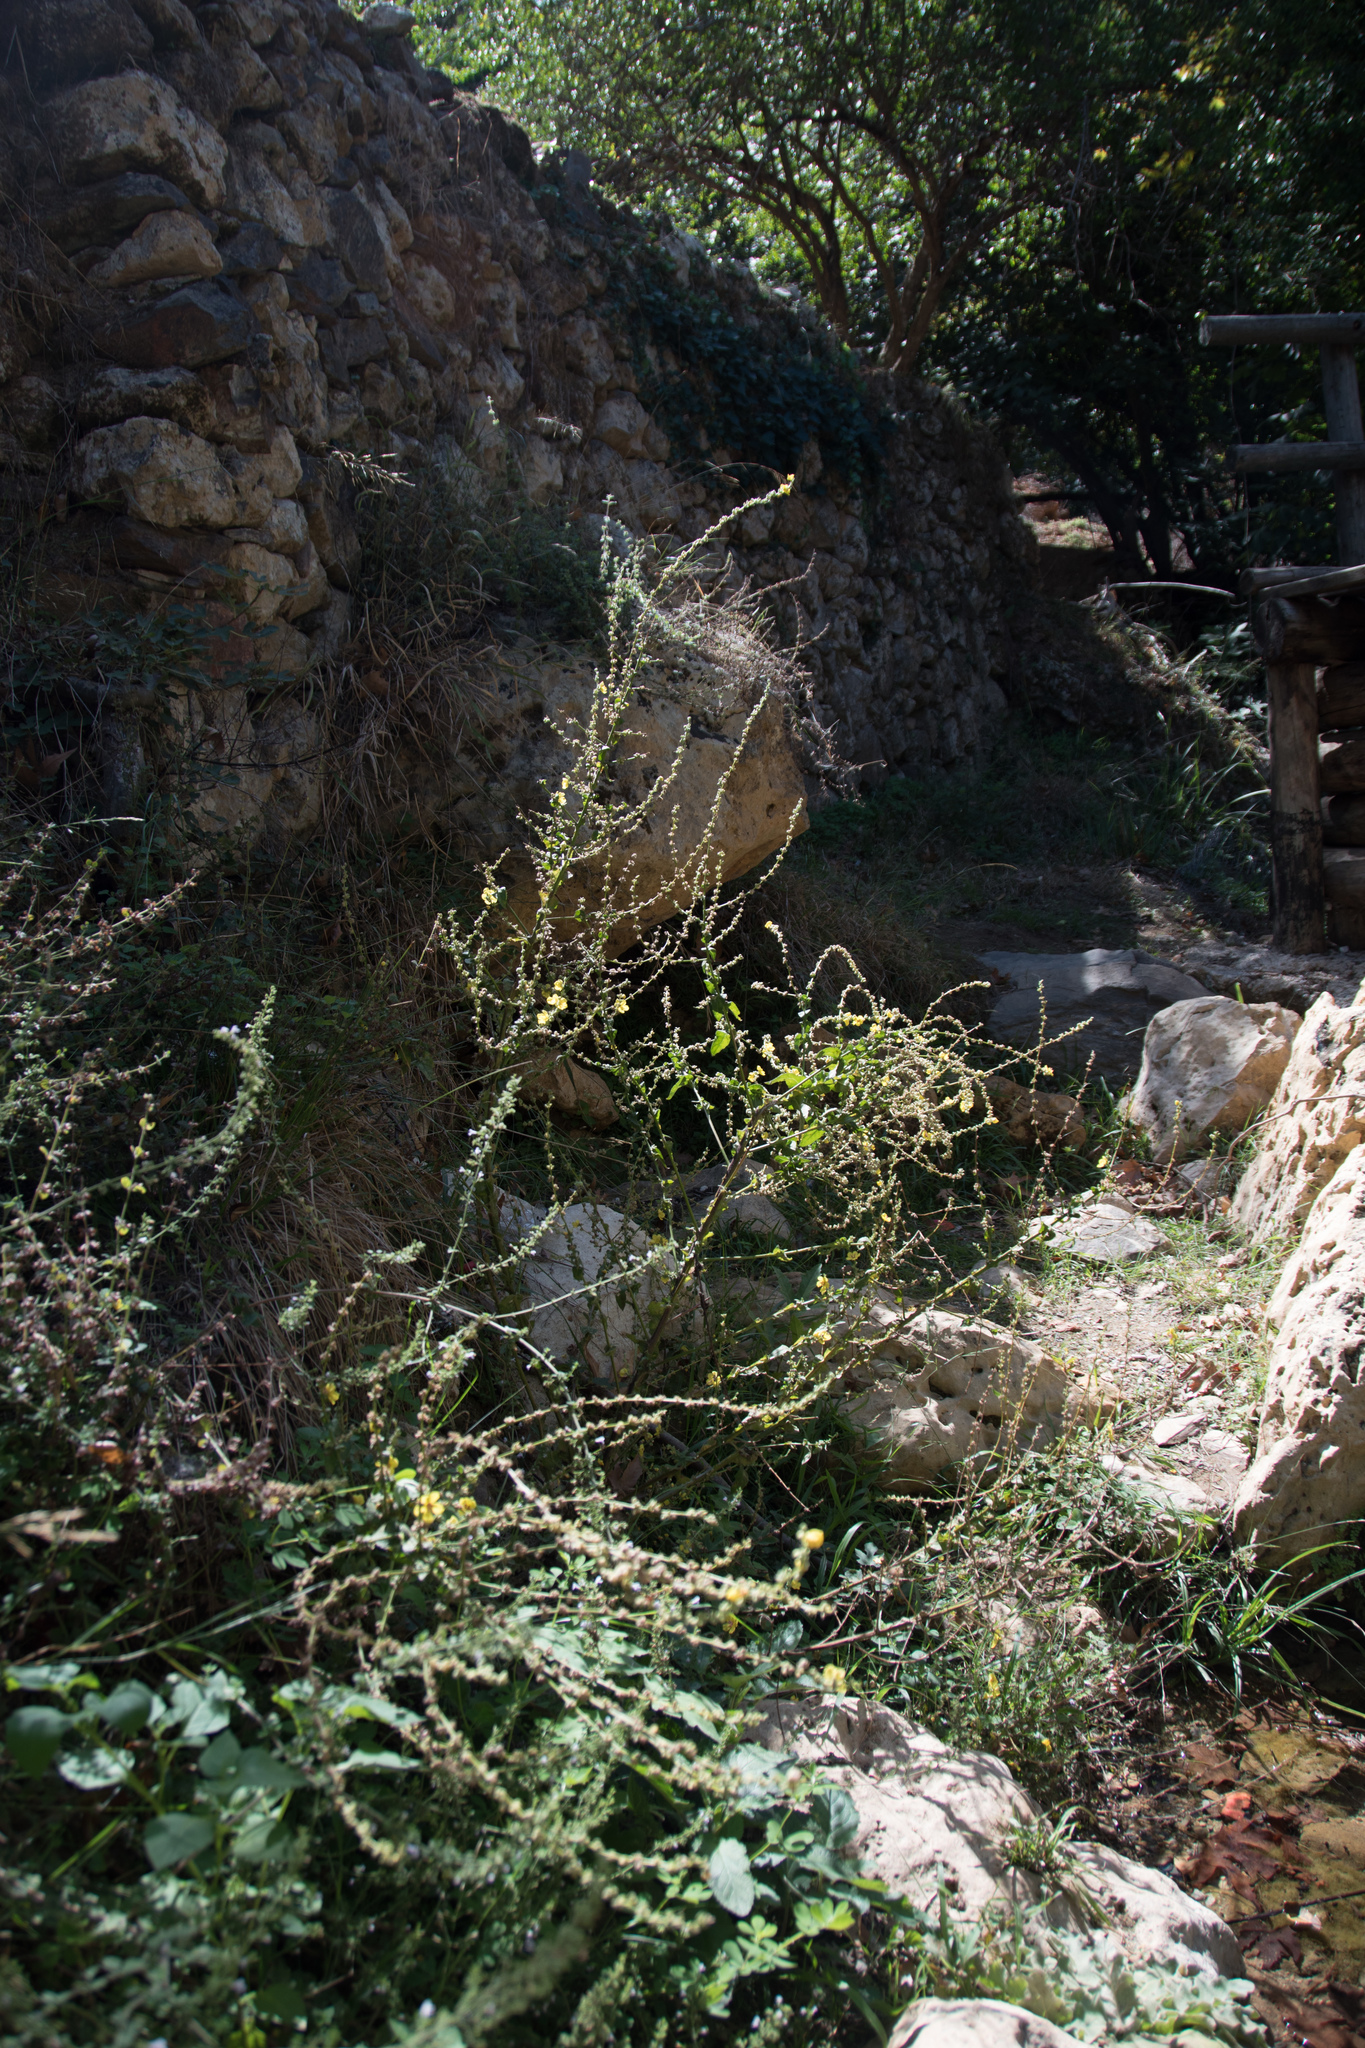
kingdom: Plantae
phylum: Tracheophyta
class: Magnoliopsida
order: Lamiales
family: Scrophulariaceae
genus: Verbascum
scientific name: Verbascum sinuatum
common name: Wavyleaf mullein
